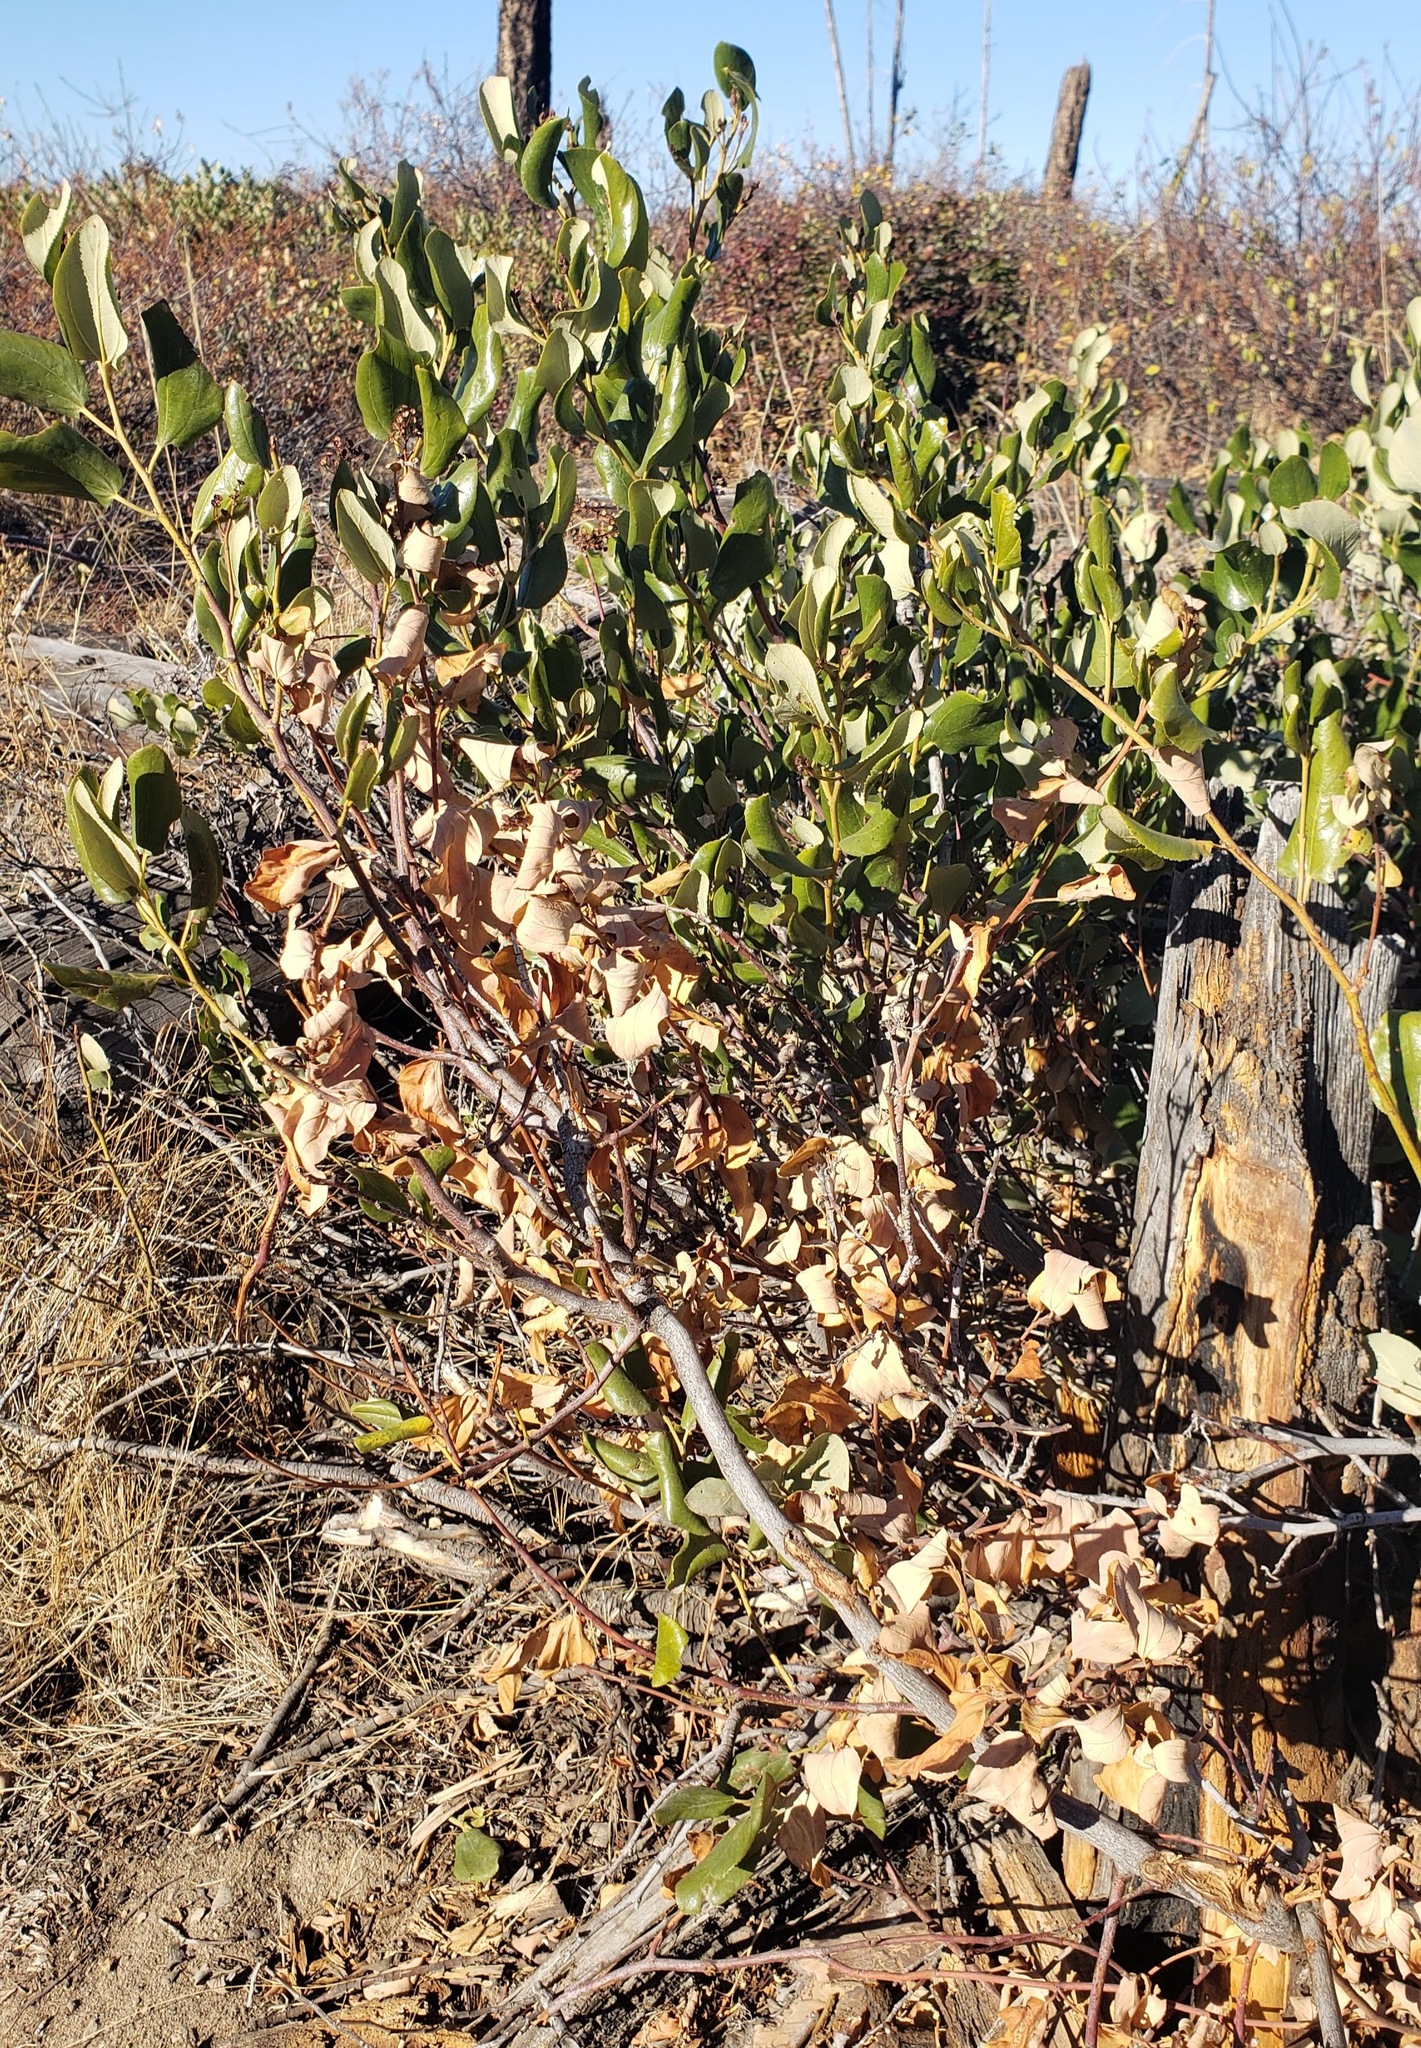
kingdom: Plantae
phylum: Tracheophyta
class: Magnoliopsida
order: Rosales
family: Rhamnaceae
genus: Ceanothus
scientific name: Ceanothus velutinus
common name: Snowbrush
